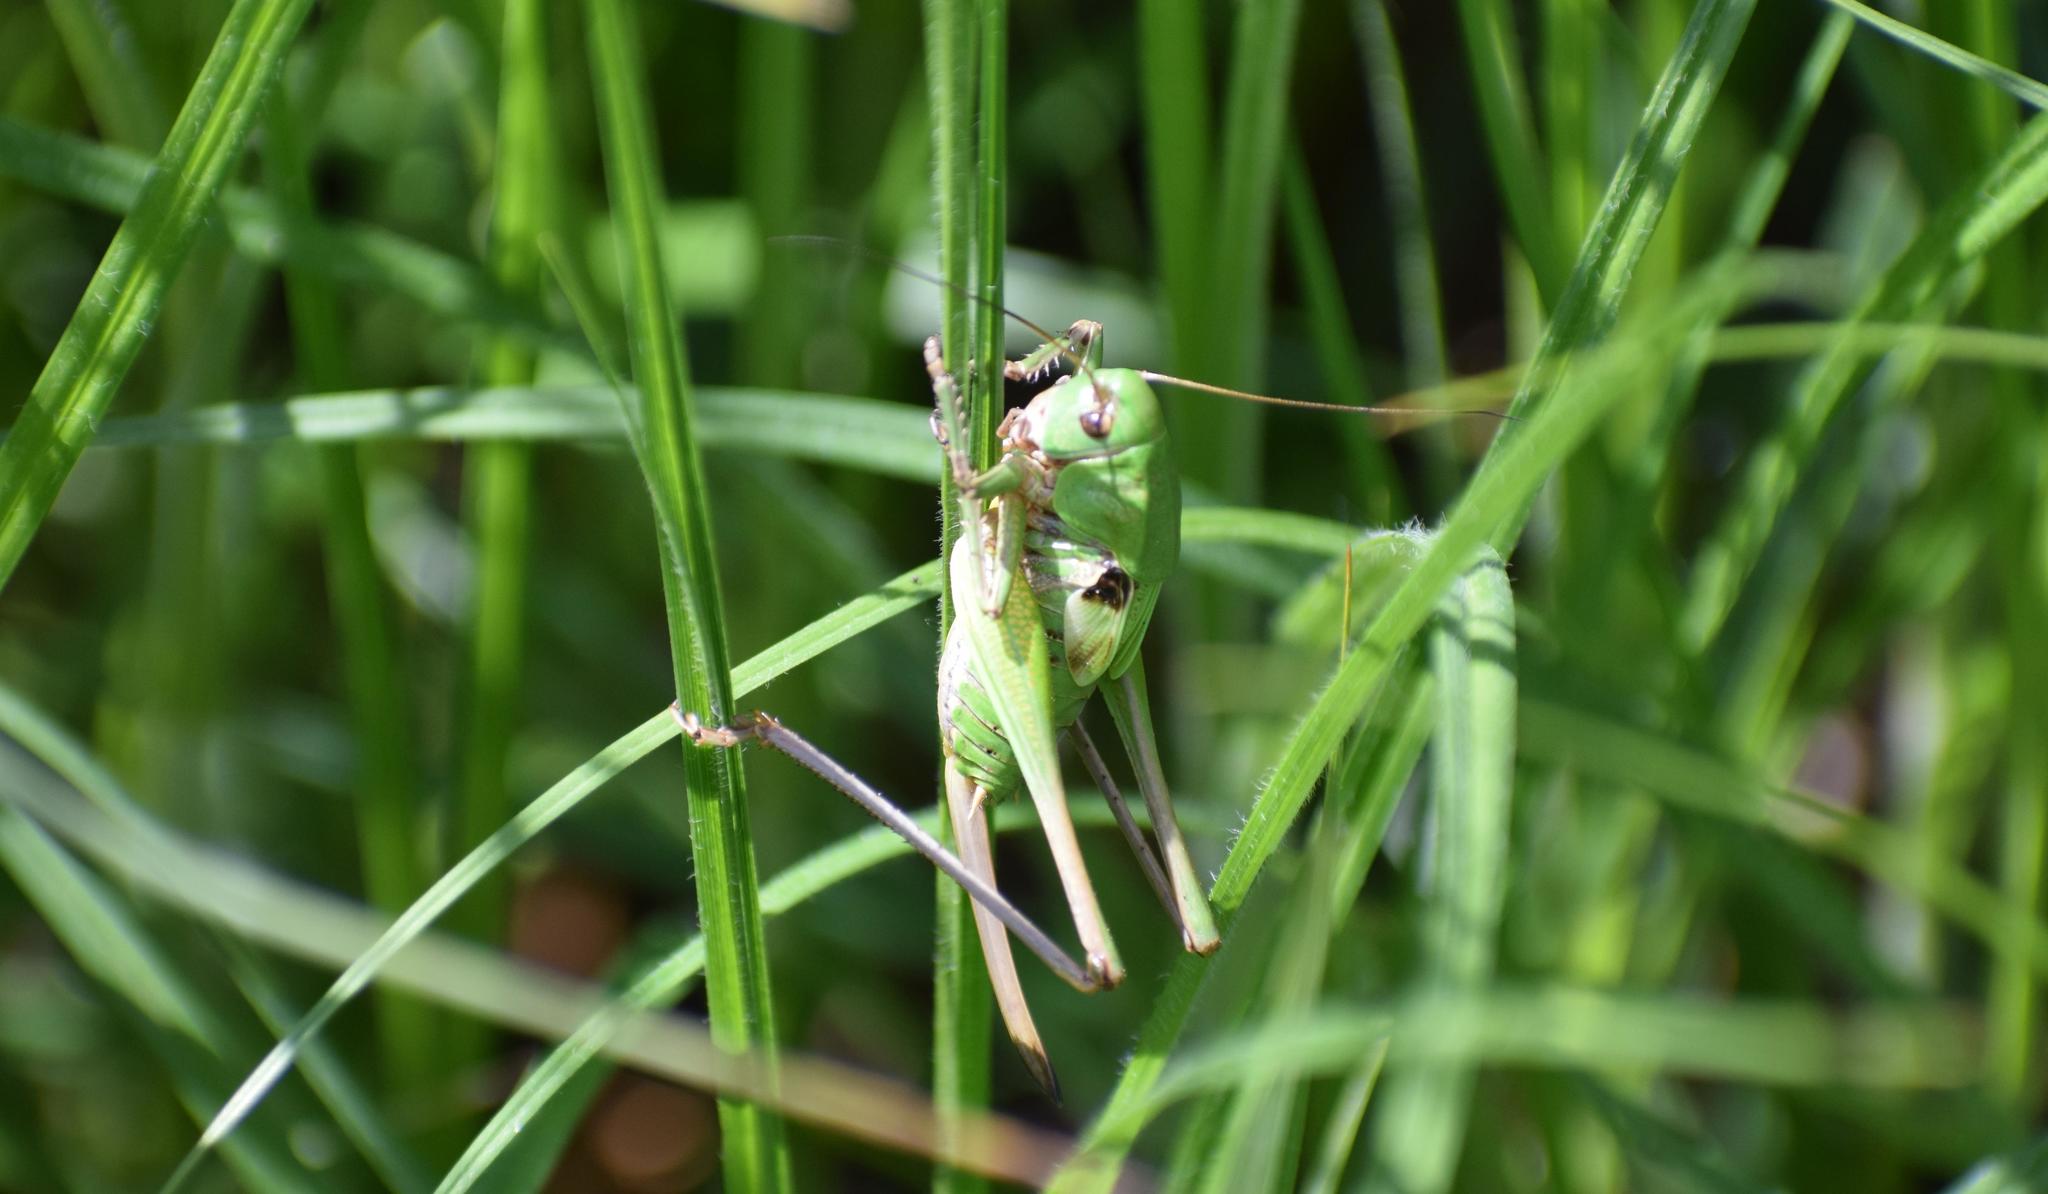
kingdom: Animalia
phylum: Arthropoda
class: Insecta
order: Orthoptera
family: Tettigoniidae
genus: Decticus
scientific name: Decticus verrucivorus
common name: Wart-biter
